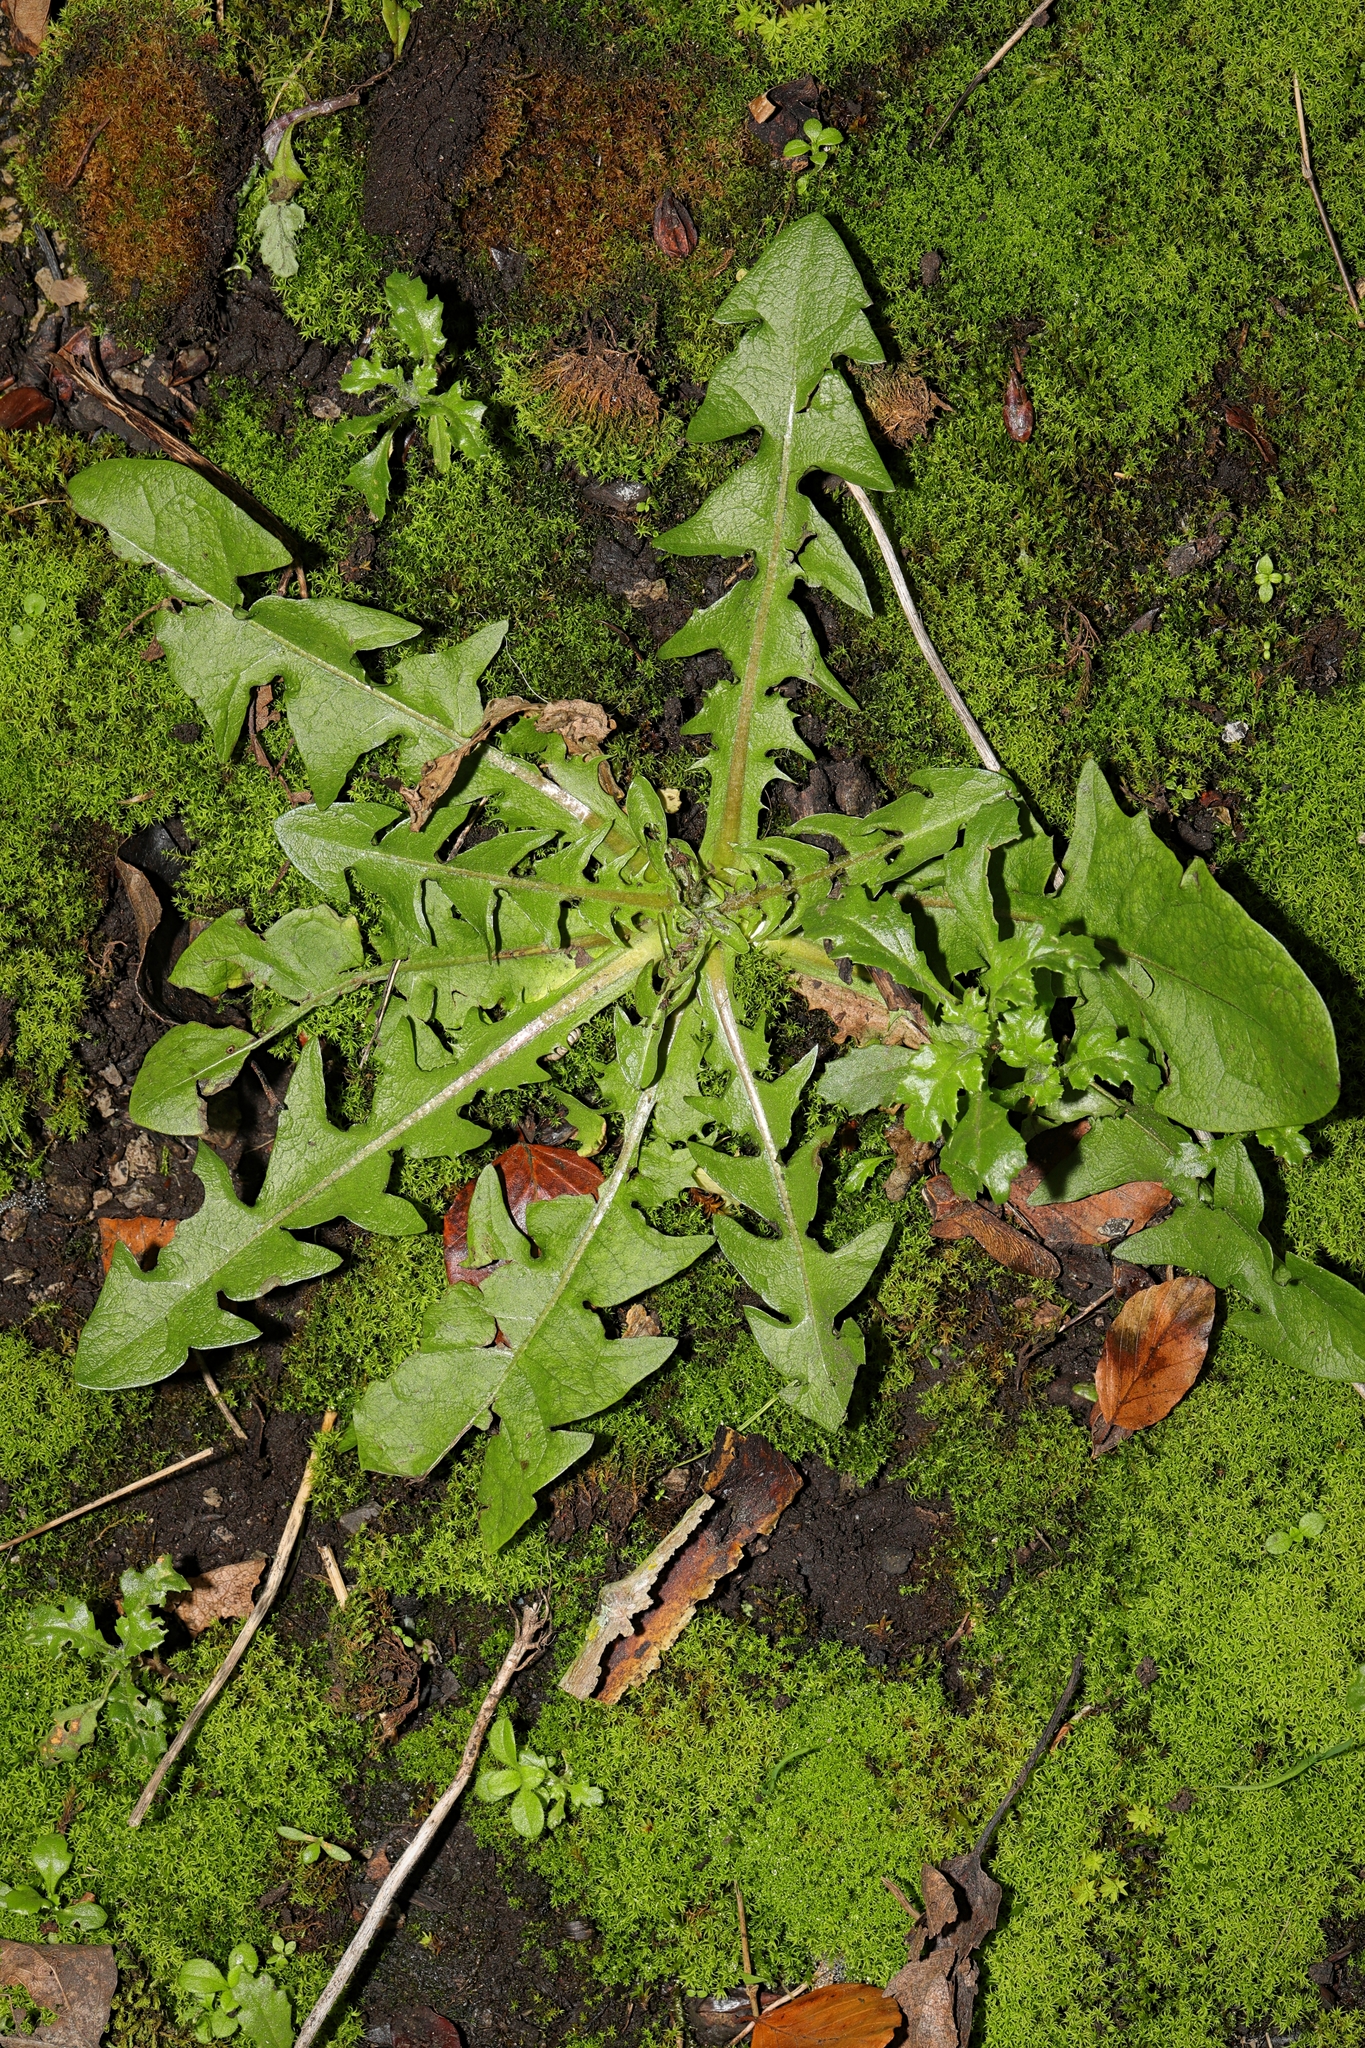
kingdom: Plantae
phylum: Tracheophyta
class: Magnoliopsida
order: Asterales
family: Asteraceae
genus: Taraxacum
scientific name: Taraxacum officinale
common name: Common dandelion
